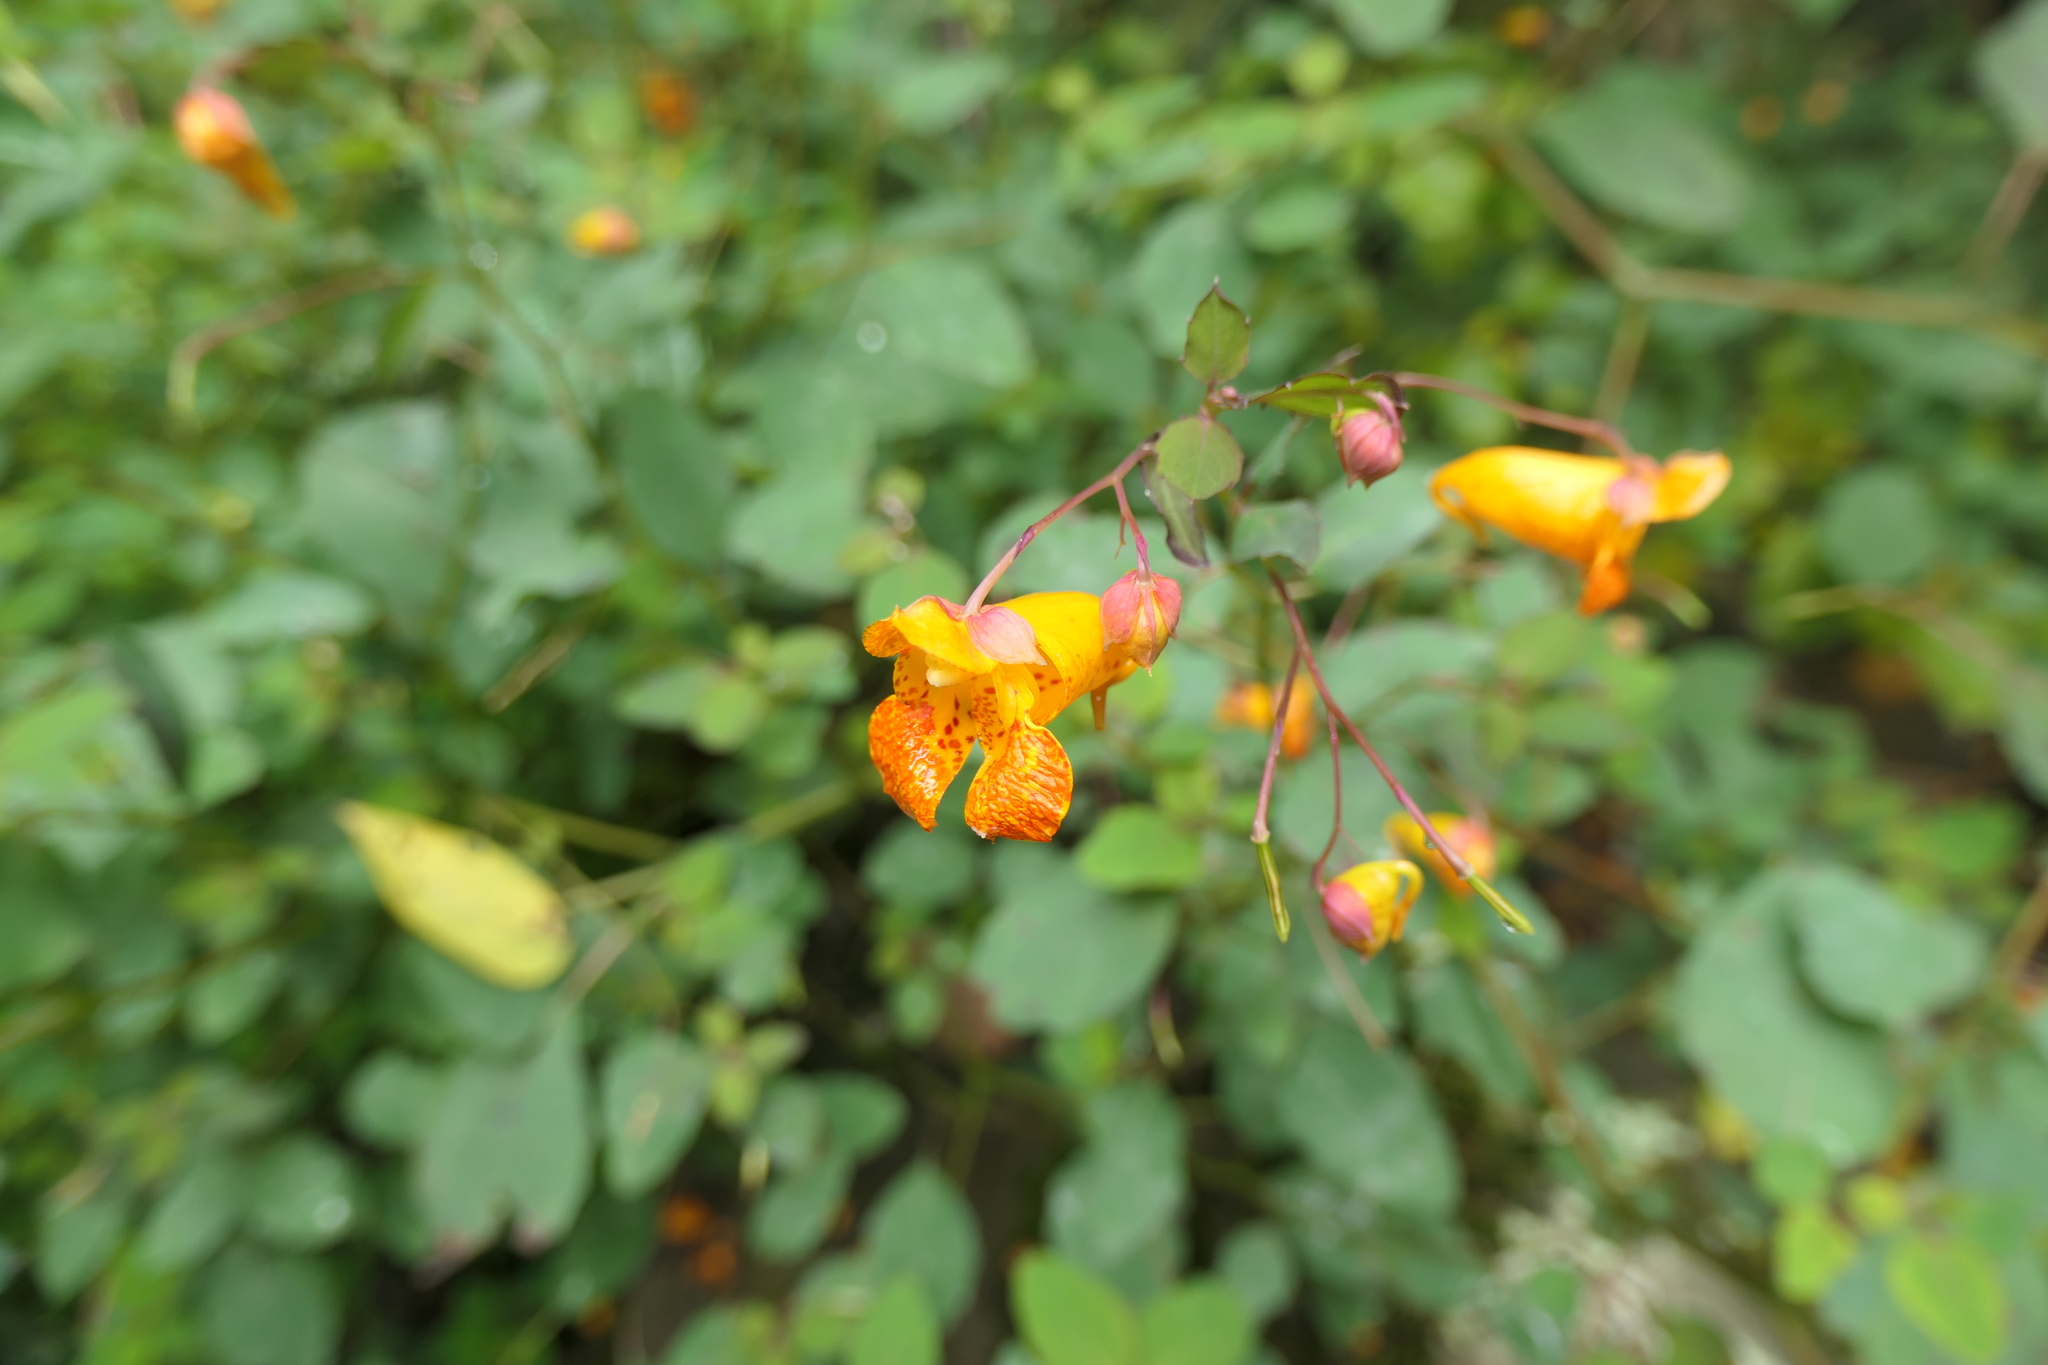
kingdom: Plantae
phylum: Tracheophyta
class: Magnoliopsida
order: Ericales
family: Balsaminaceae
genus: Impatiens
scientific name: Impatiens capensis
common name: Orange balsam
